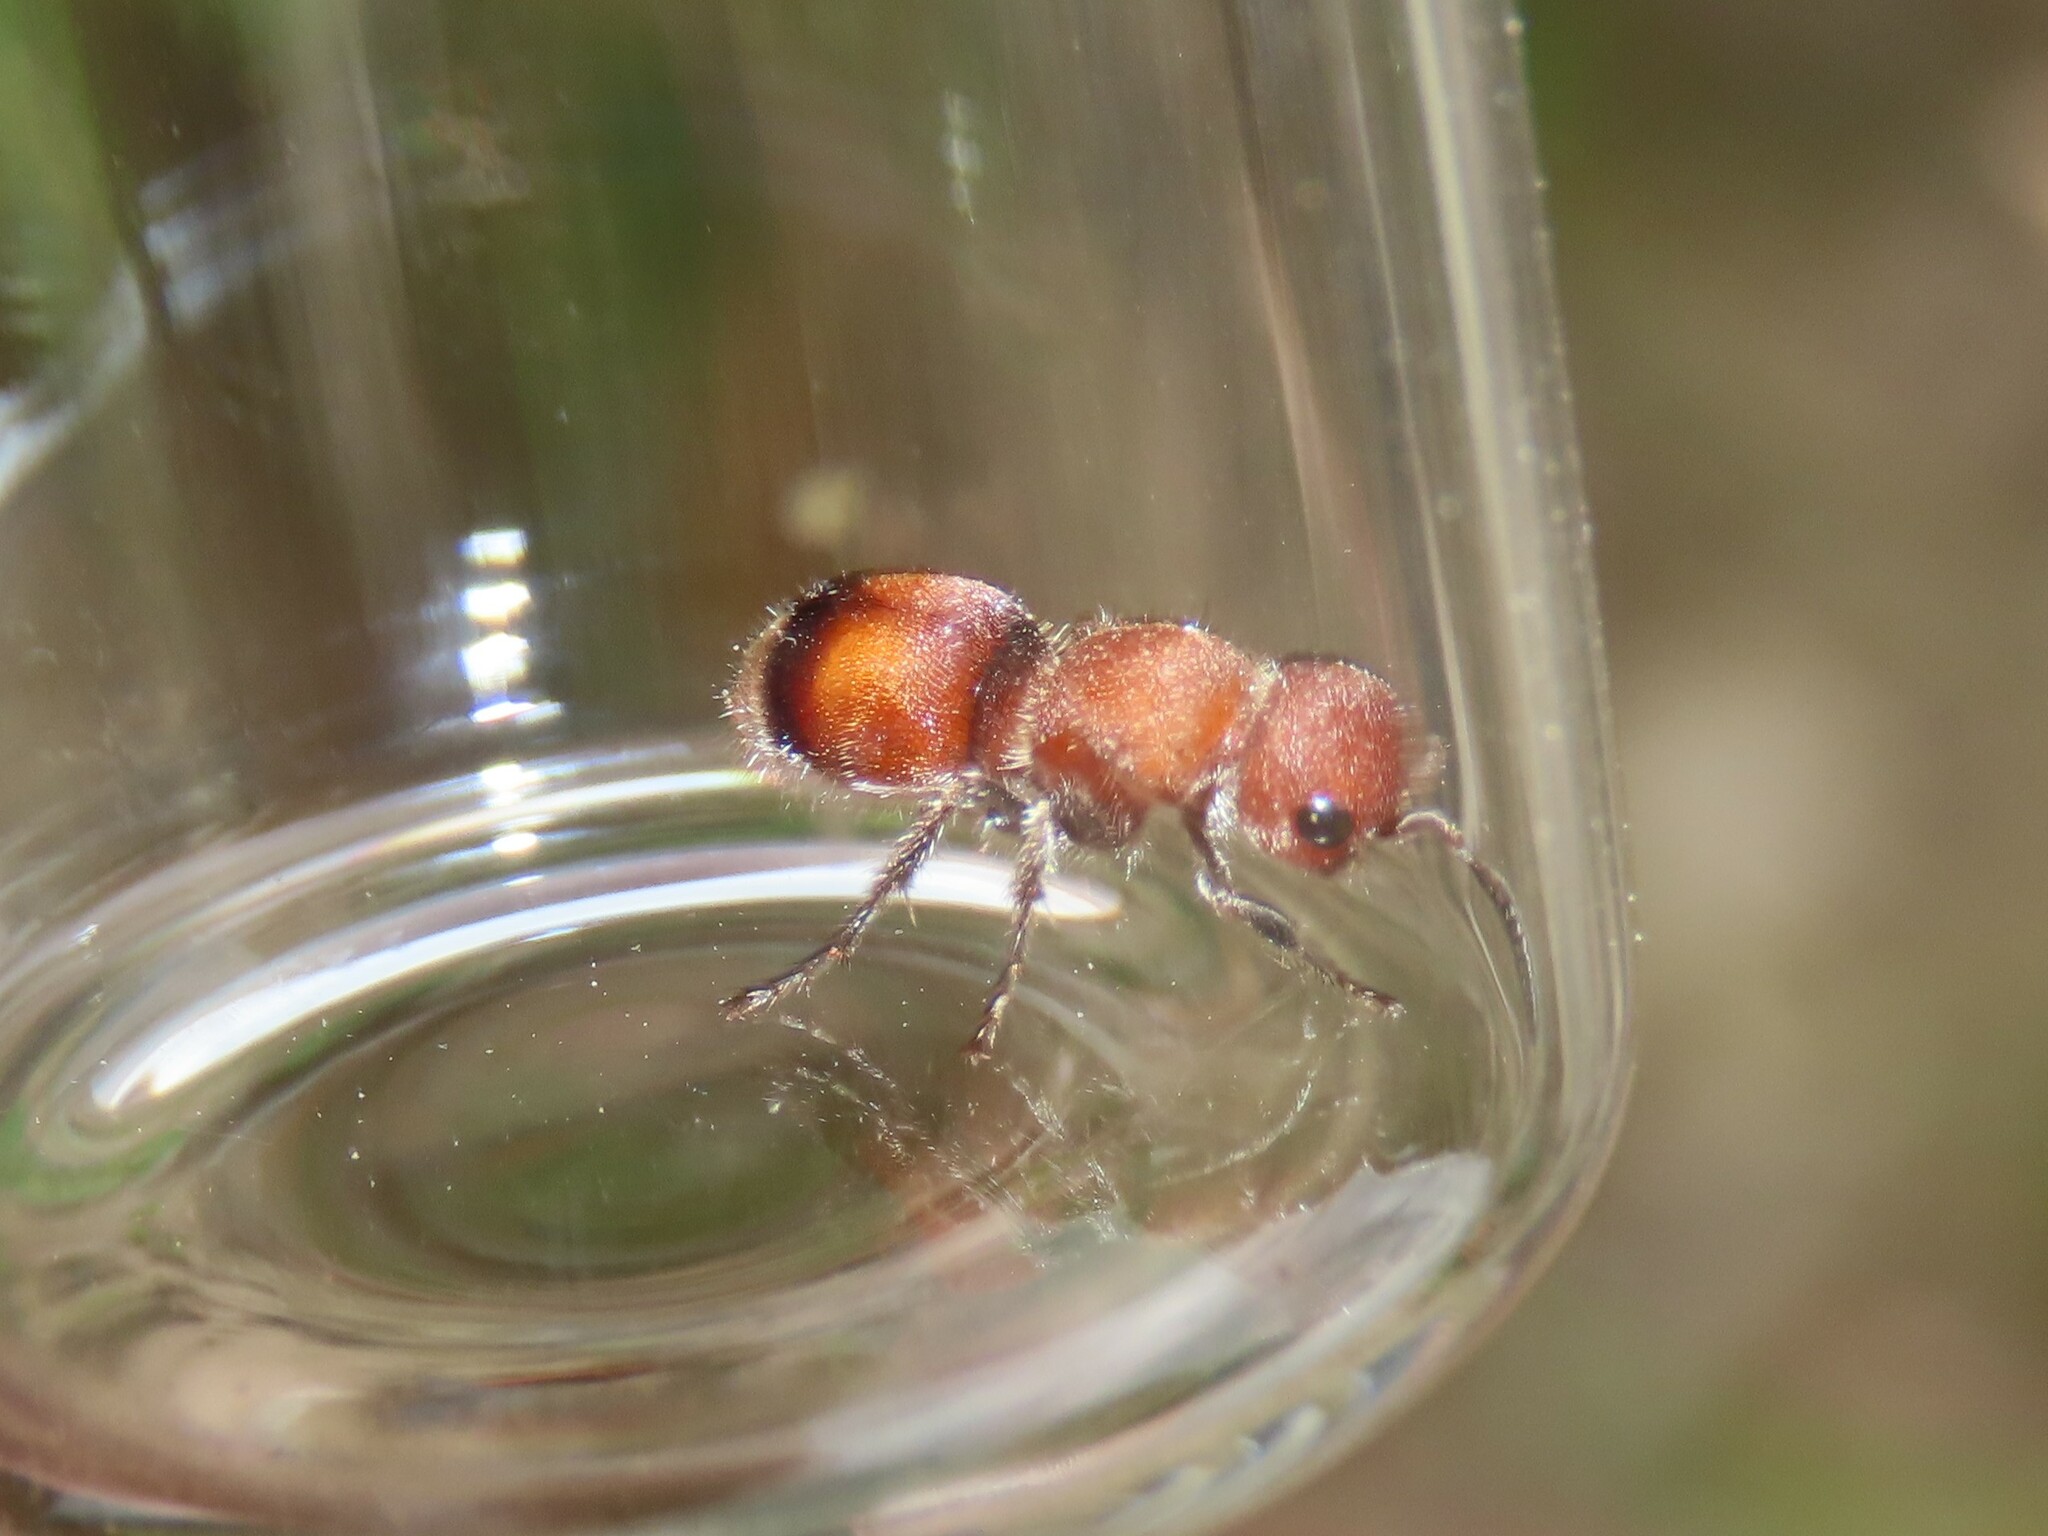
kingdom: Animalia
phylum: Arthropoda
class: Insecta
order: Hymenoptera
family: Mutillidae
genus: Pseudomethoca
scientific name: Pseudomethoca
